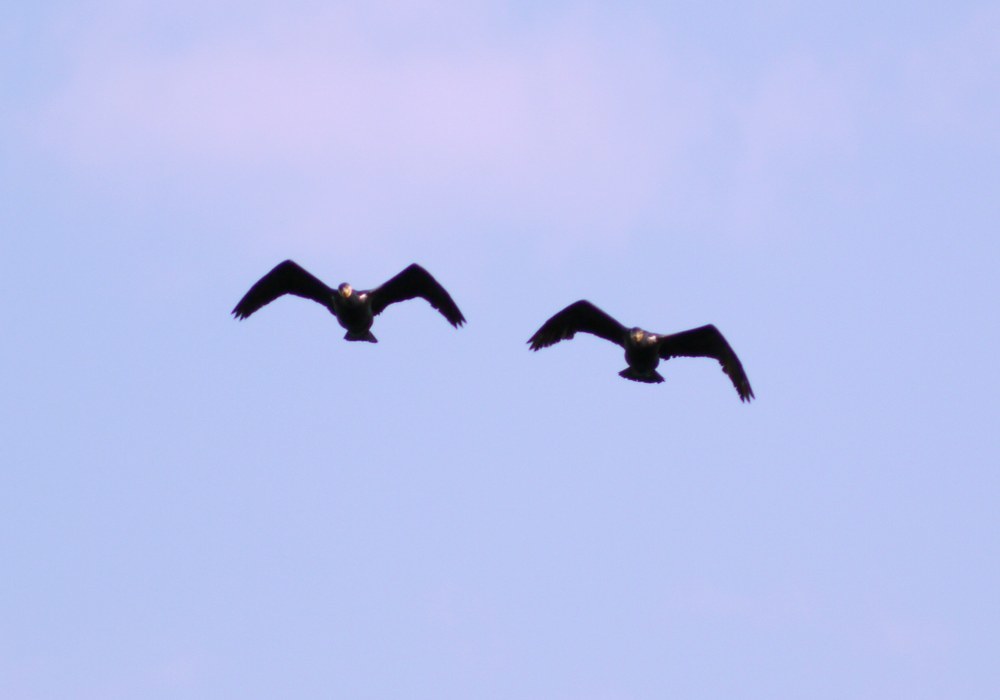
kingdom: Animalia
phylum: Chordata
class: Aves
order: Suliformes
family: Phalacrocoracidae
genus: Phalacrocorax
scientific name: Phalacrocorax carbo
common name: Great cormorant
